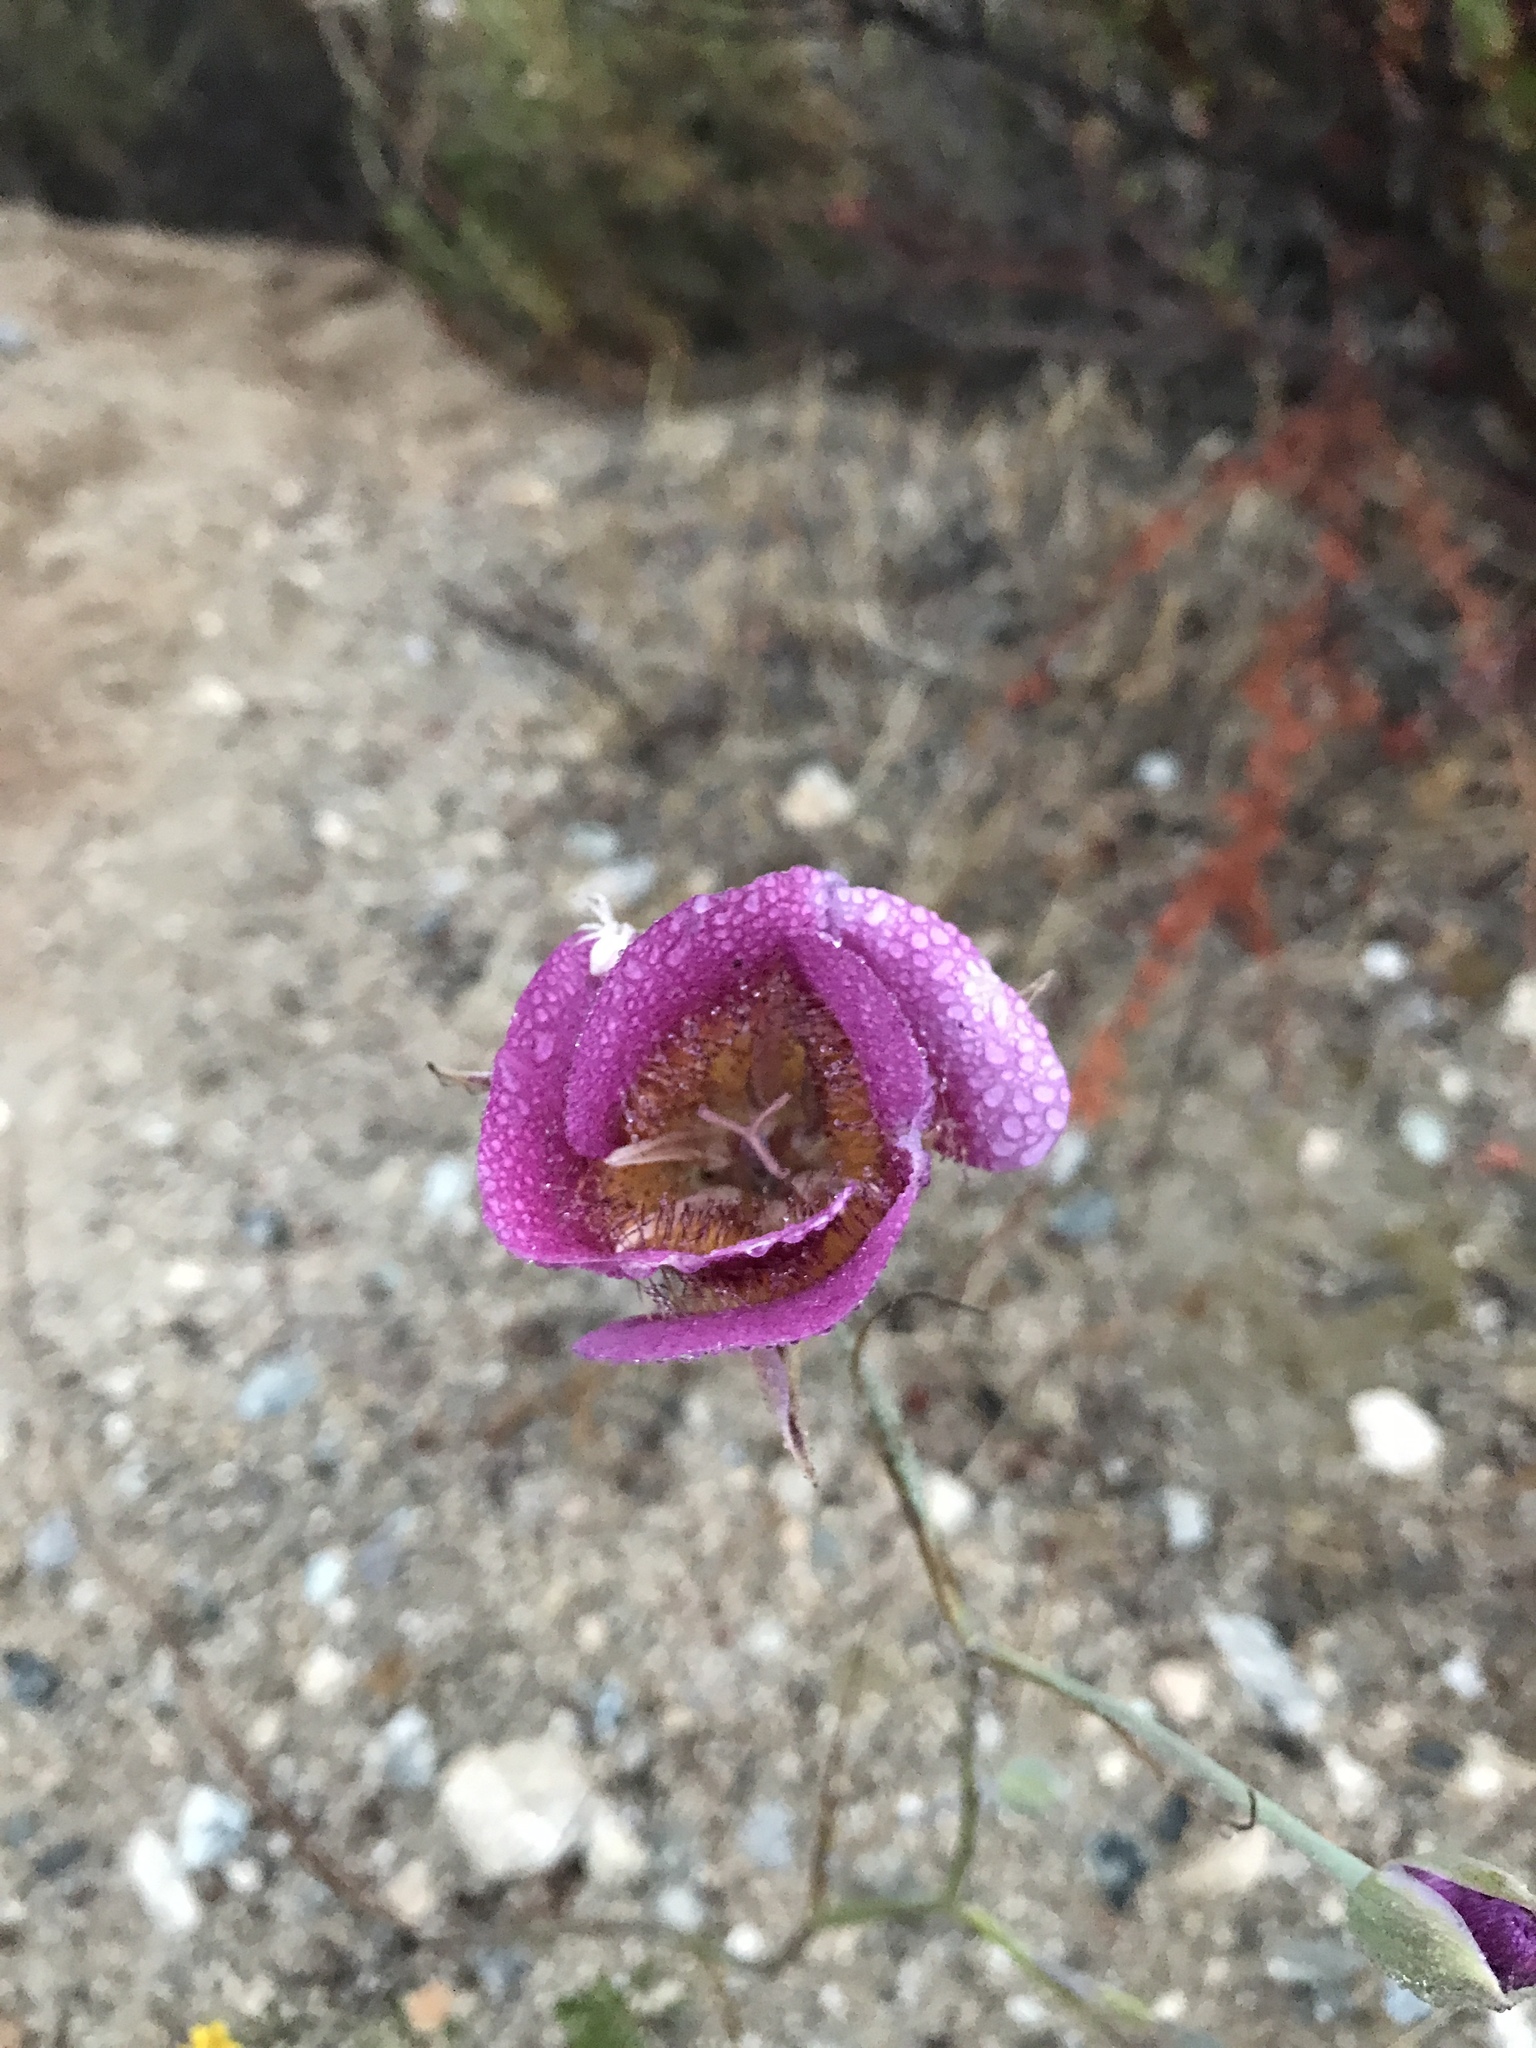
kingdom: Plantae
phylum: Tracheophyta
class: Liliopsida
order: Liliales
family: Liliaceae
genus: Calochortus
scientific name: Calochortus plummerae
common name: Plummer's mariposa-lily
